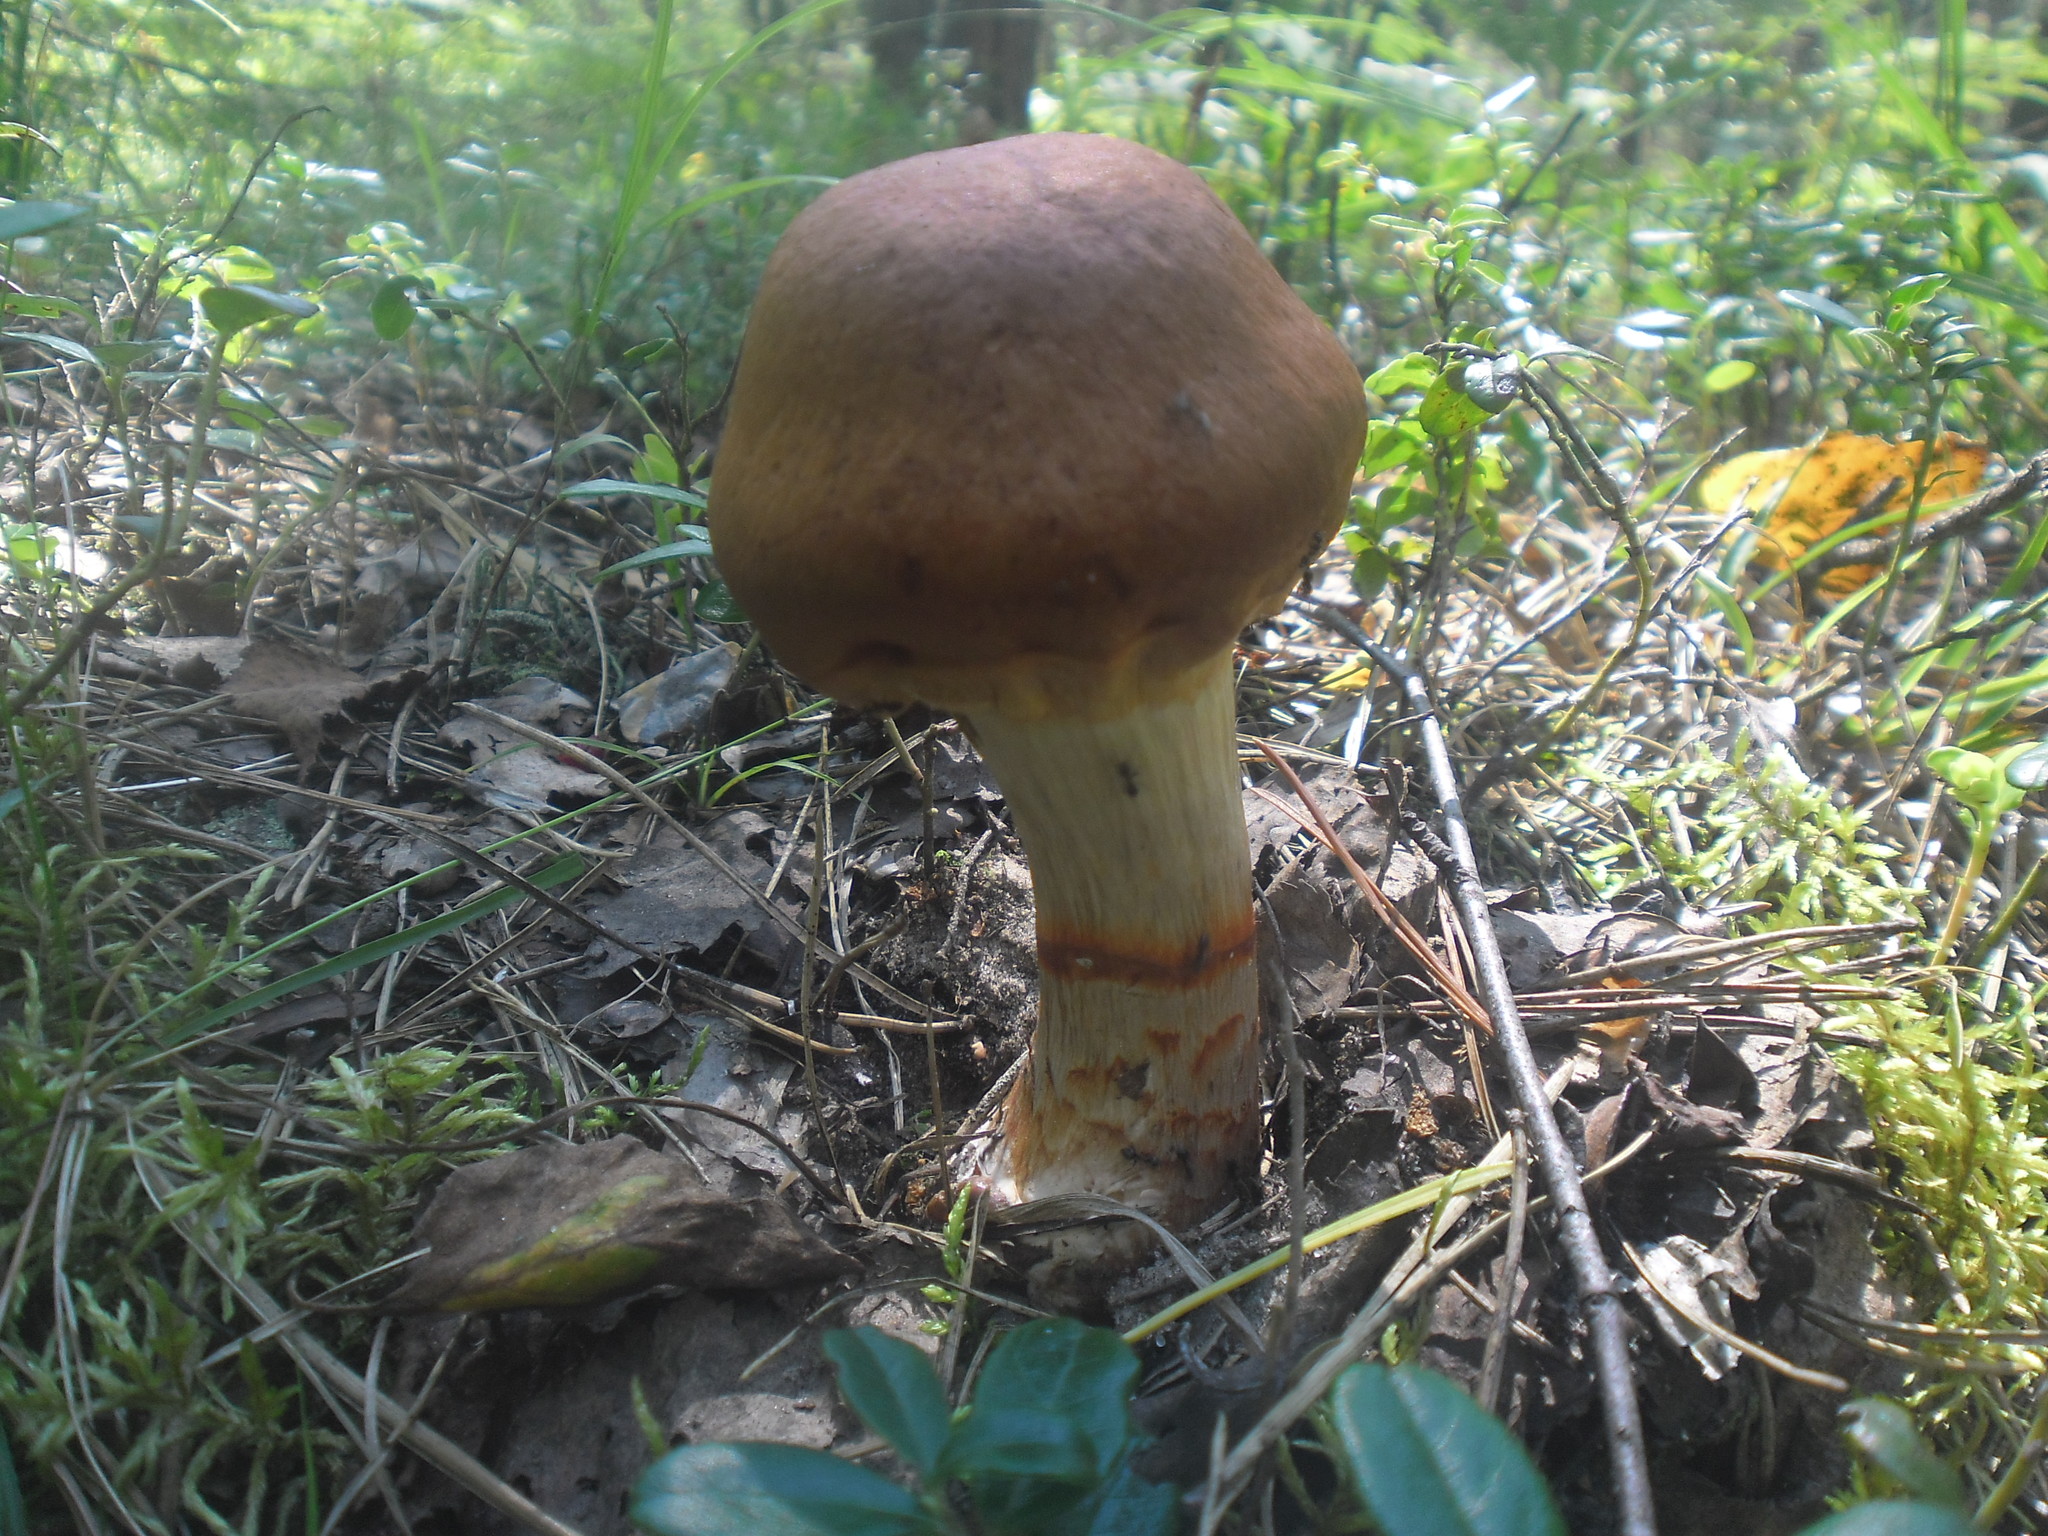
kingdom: Fungi
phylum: Basidiomycota
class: Agaricomycetes
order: Agaricales
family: Cortinariaceae
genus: Cortinarius
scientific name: Cortinarius armillatus
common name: Red banded webcap
